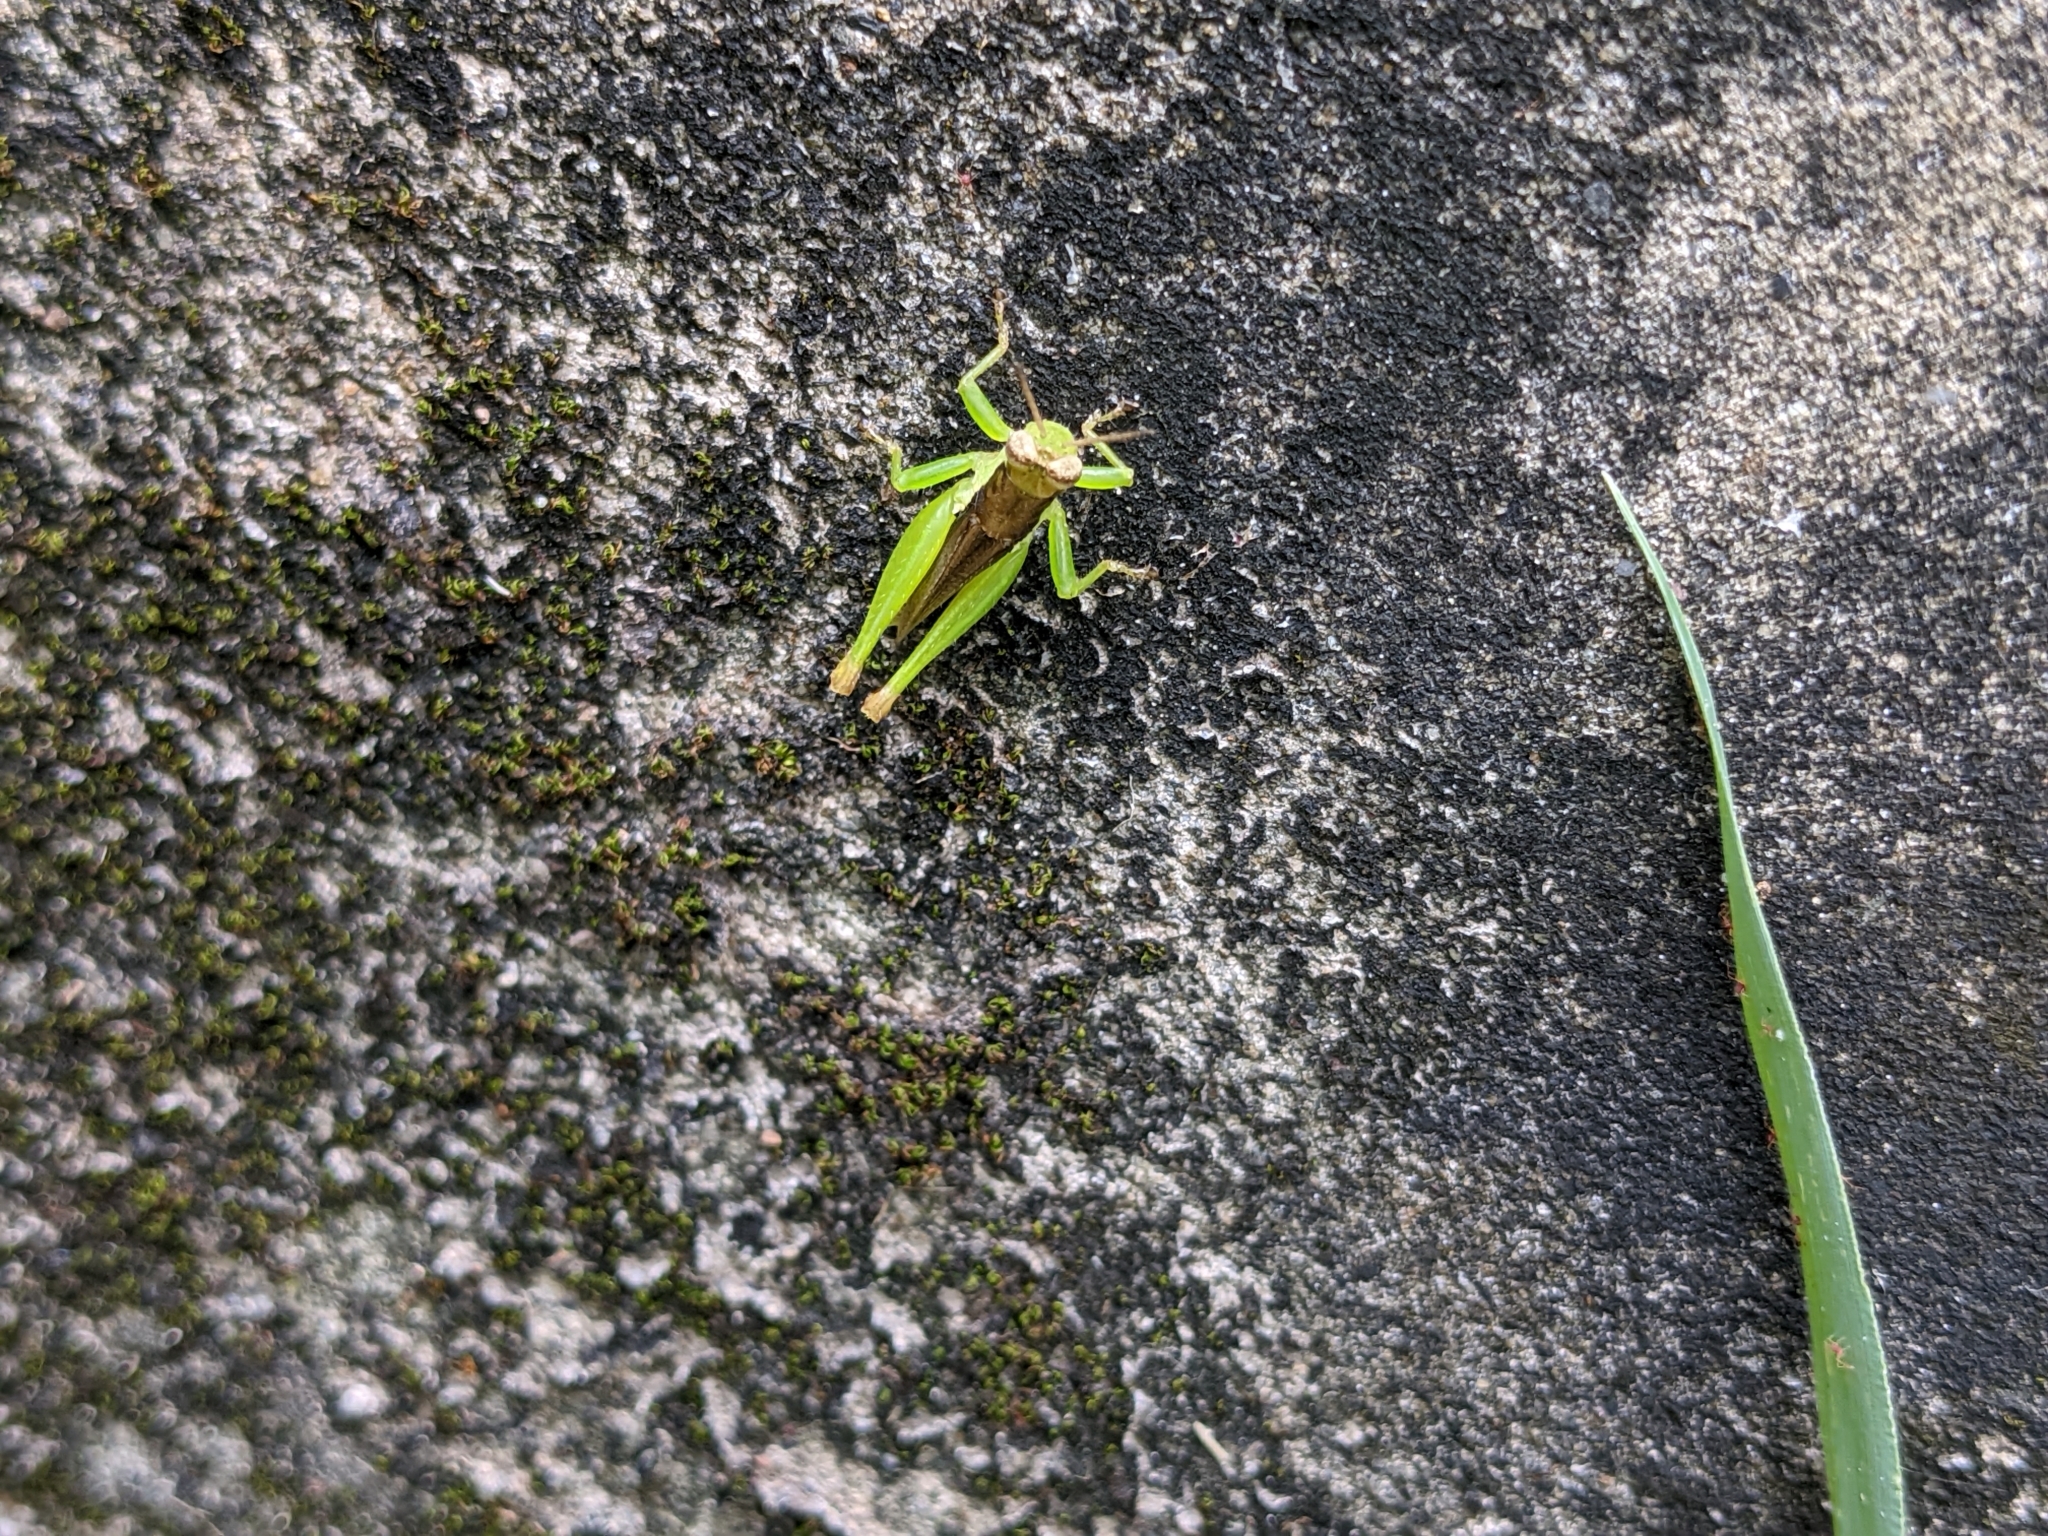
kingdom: Animalia
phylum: Arthropoda
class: Insecta
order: Orthoptera
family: Acrididae
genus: Pseudoxya
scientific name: Pseudoxya diminuta
